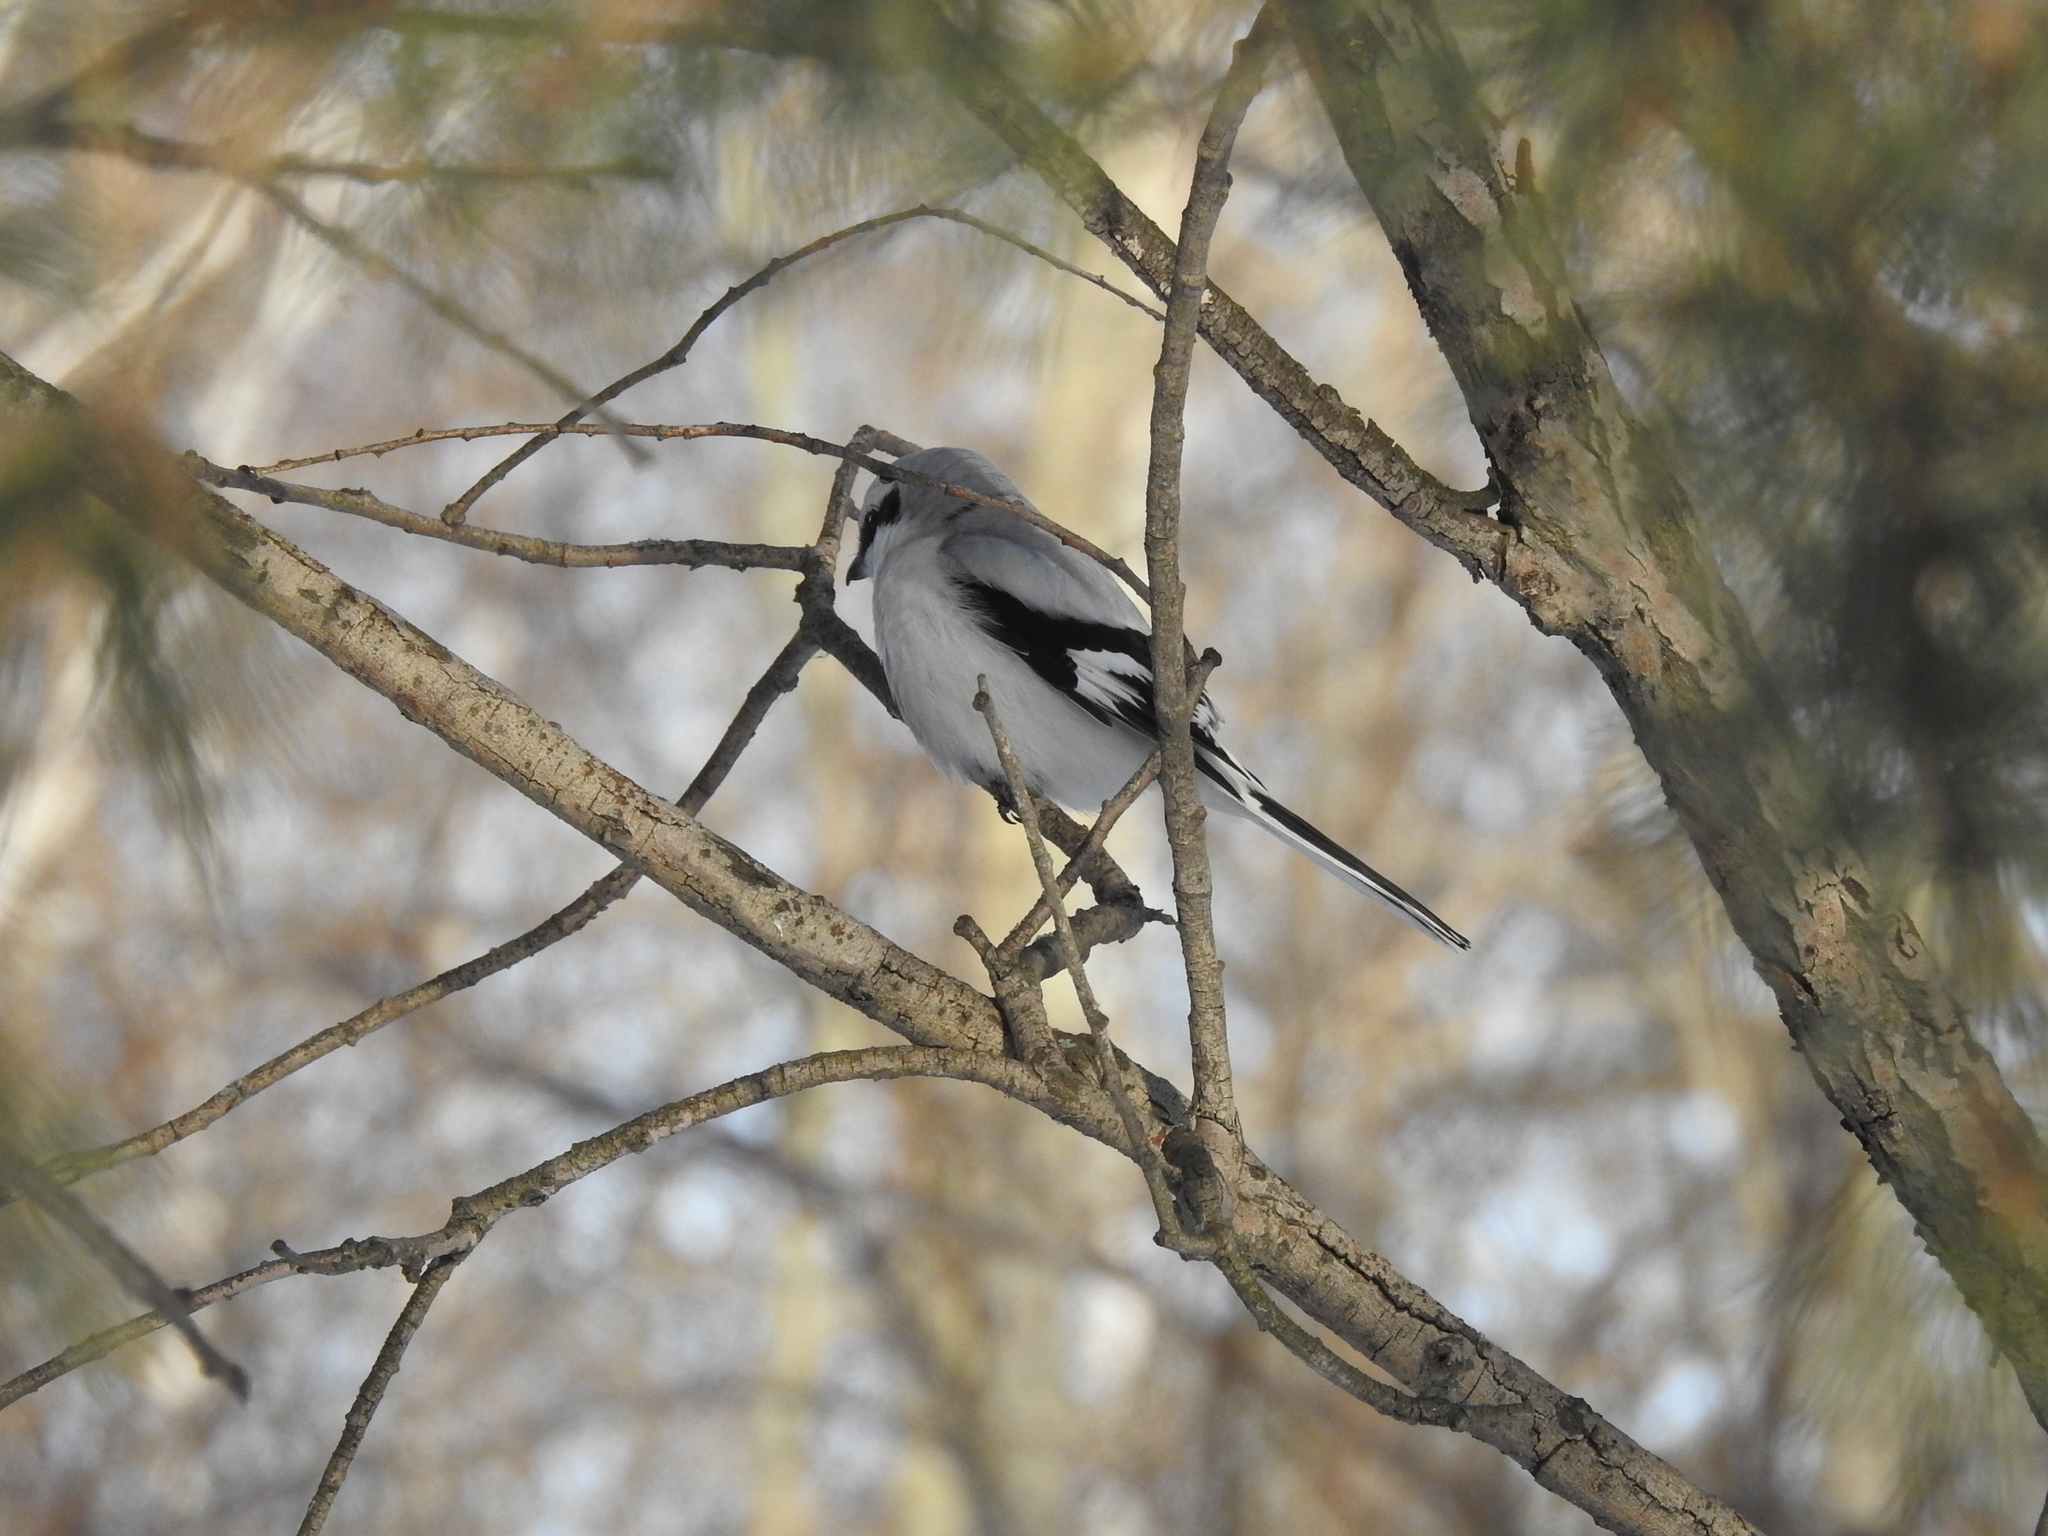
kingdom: Animalia
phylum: Chordata
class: Aves
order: Passeriformes
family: Laniidae
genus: Lanius
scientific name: Lanius excubitor
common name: Great grey shrike
